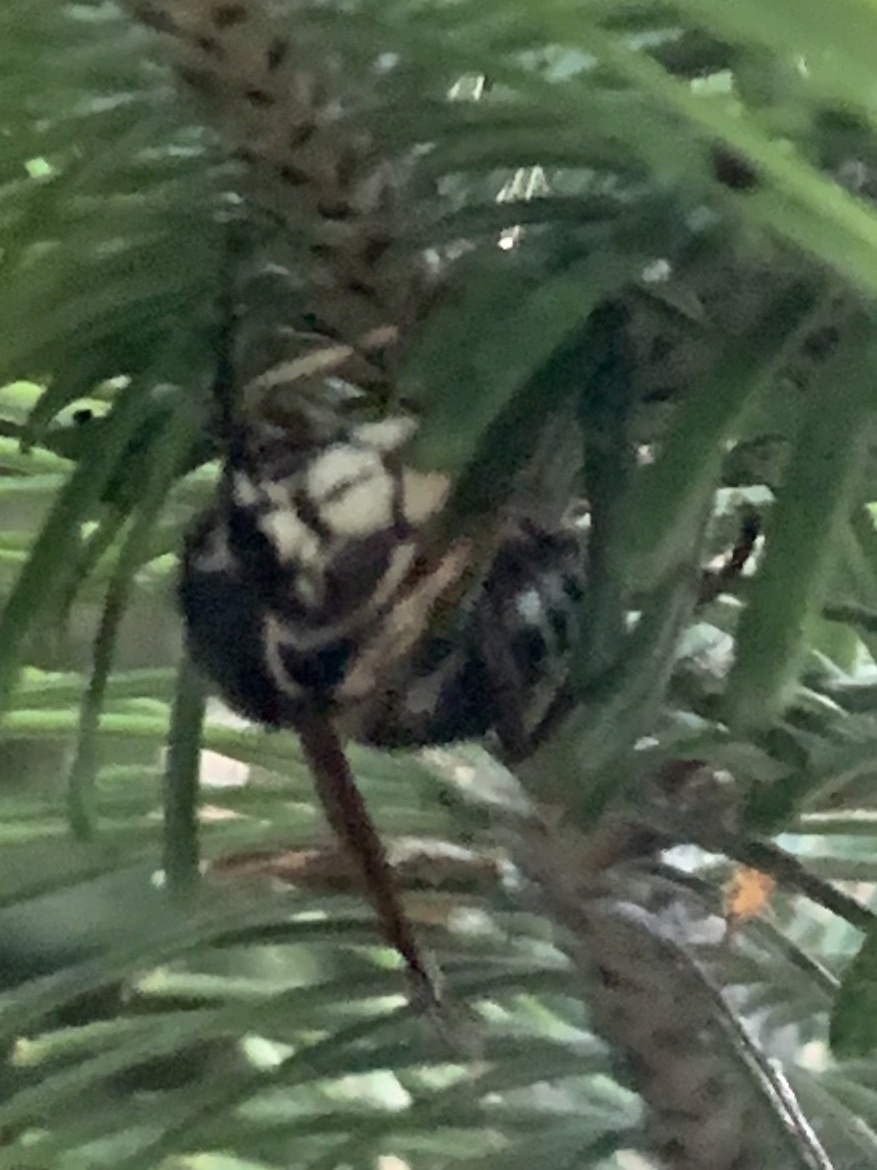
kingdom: Animalia
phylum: Arthropoda
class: Insecta
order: Hymenoptera
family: Vespidae
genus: Dolichovespula
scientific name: Dolichovespula maculata
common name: Bald-faced hornet
